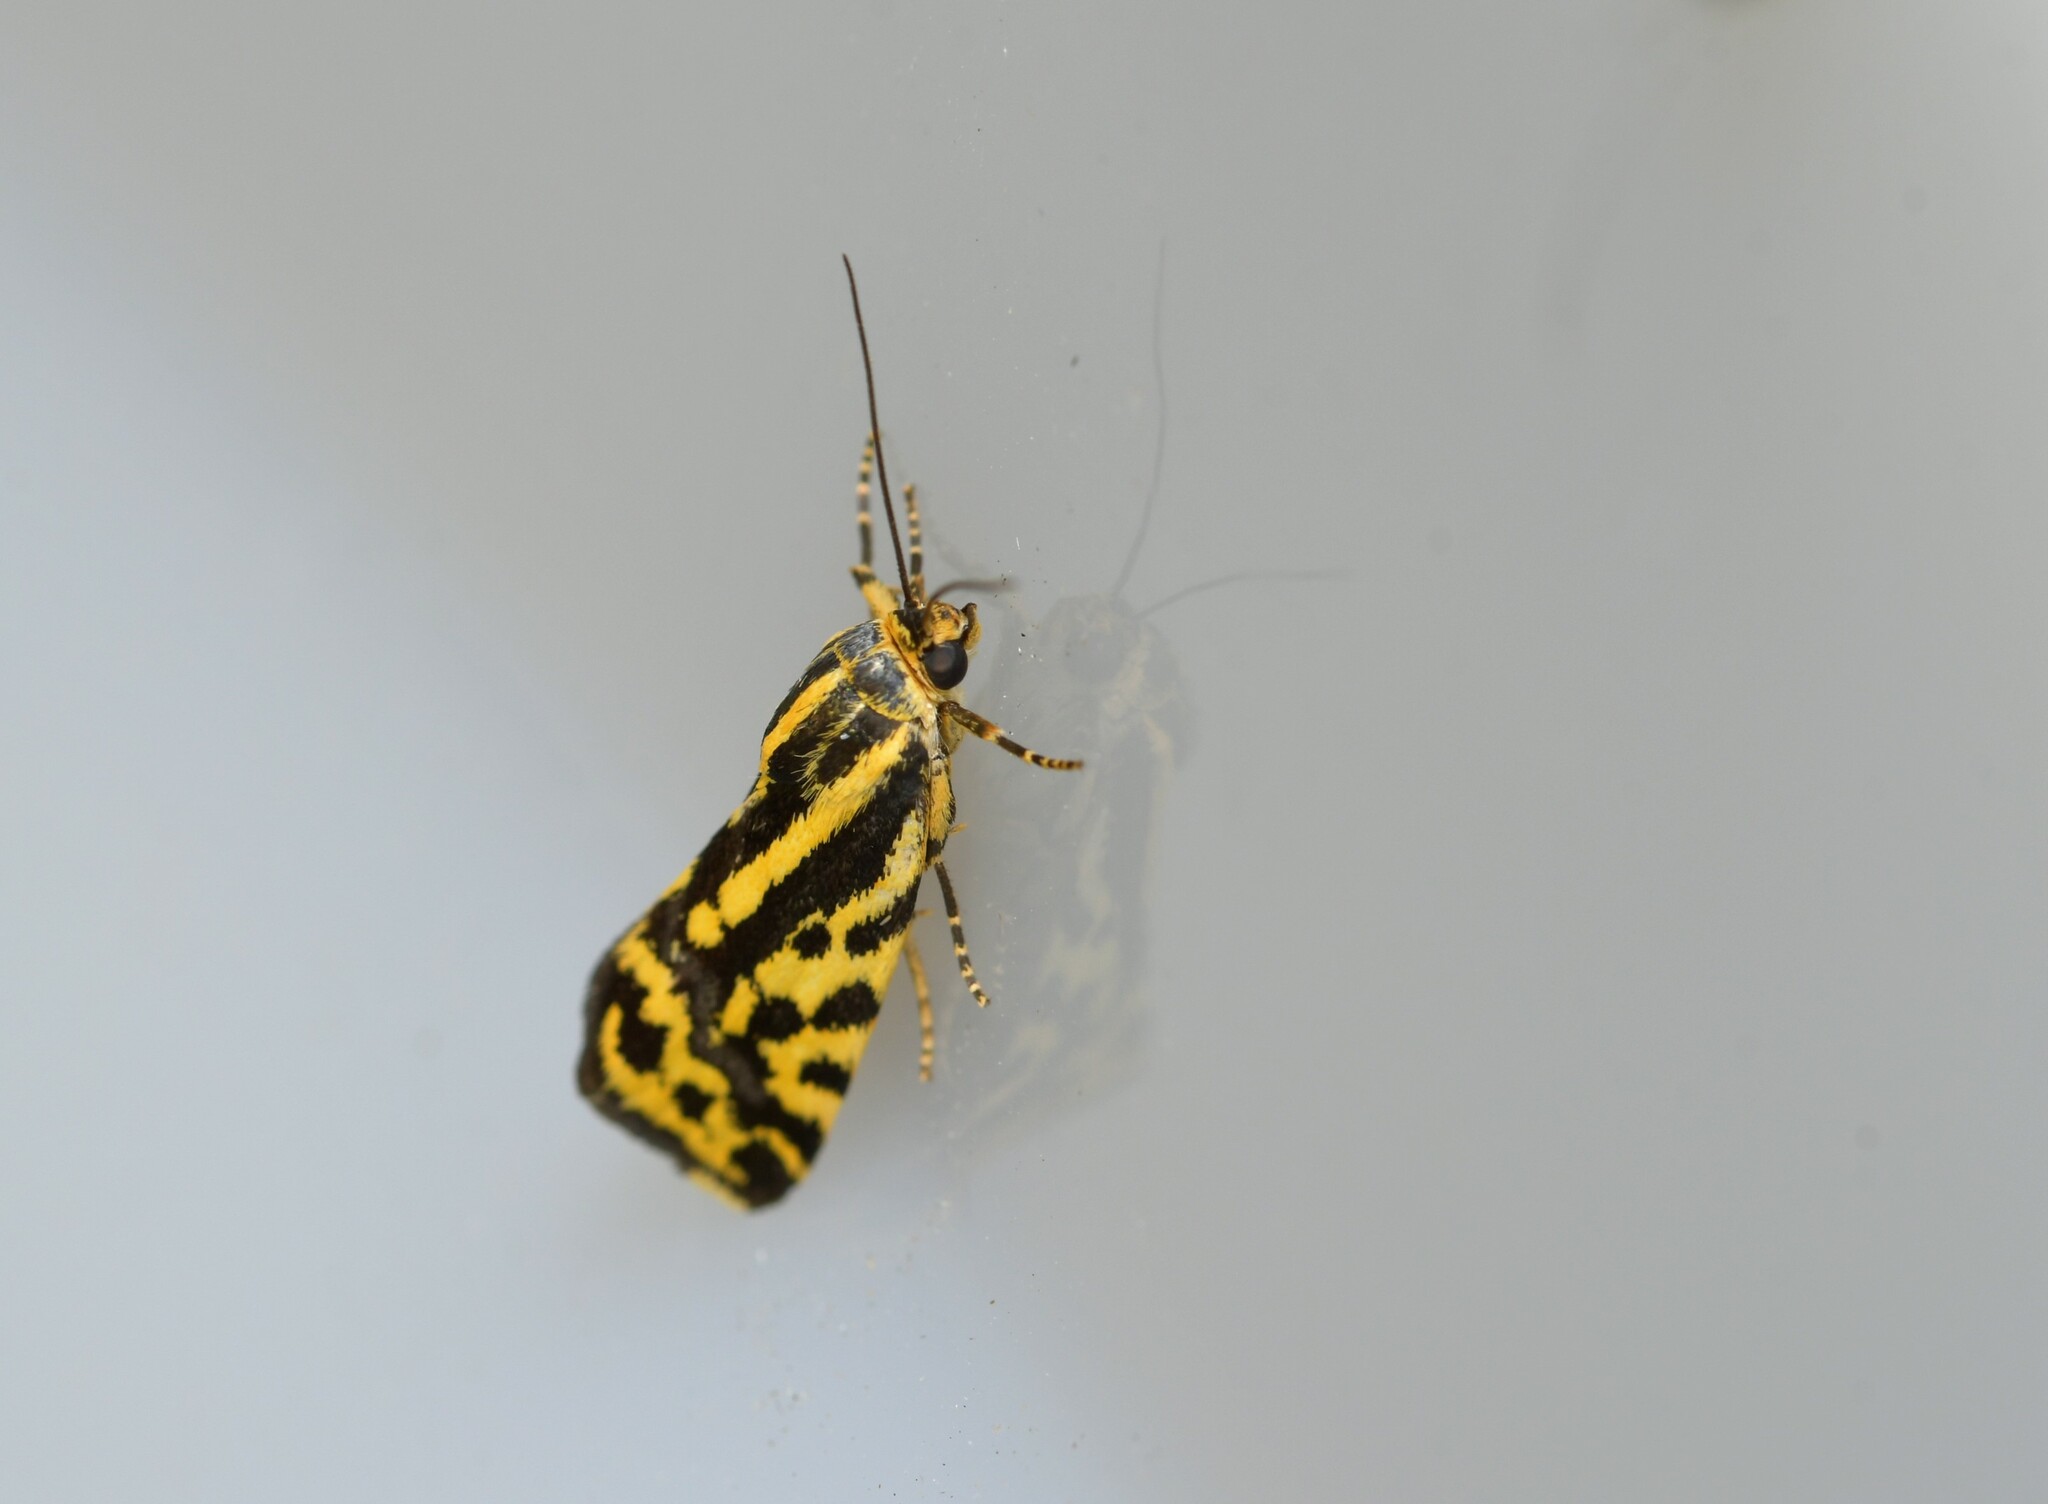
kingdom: Animalia
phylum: Arthropoda
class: Insecta
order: Lepidoptera
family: Noctuidae
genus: Acontia
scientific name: Acontia trabealis
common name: Spotted sulphur
